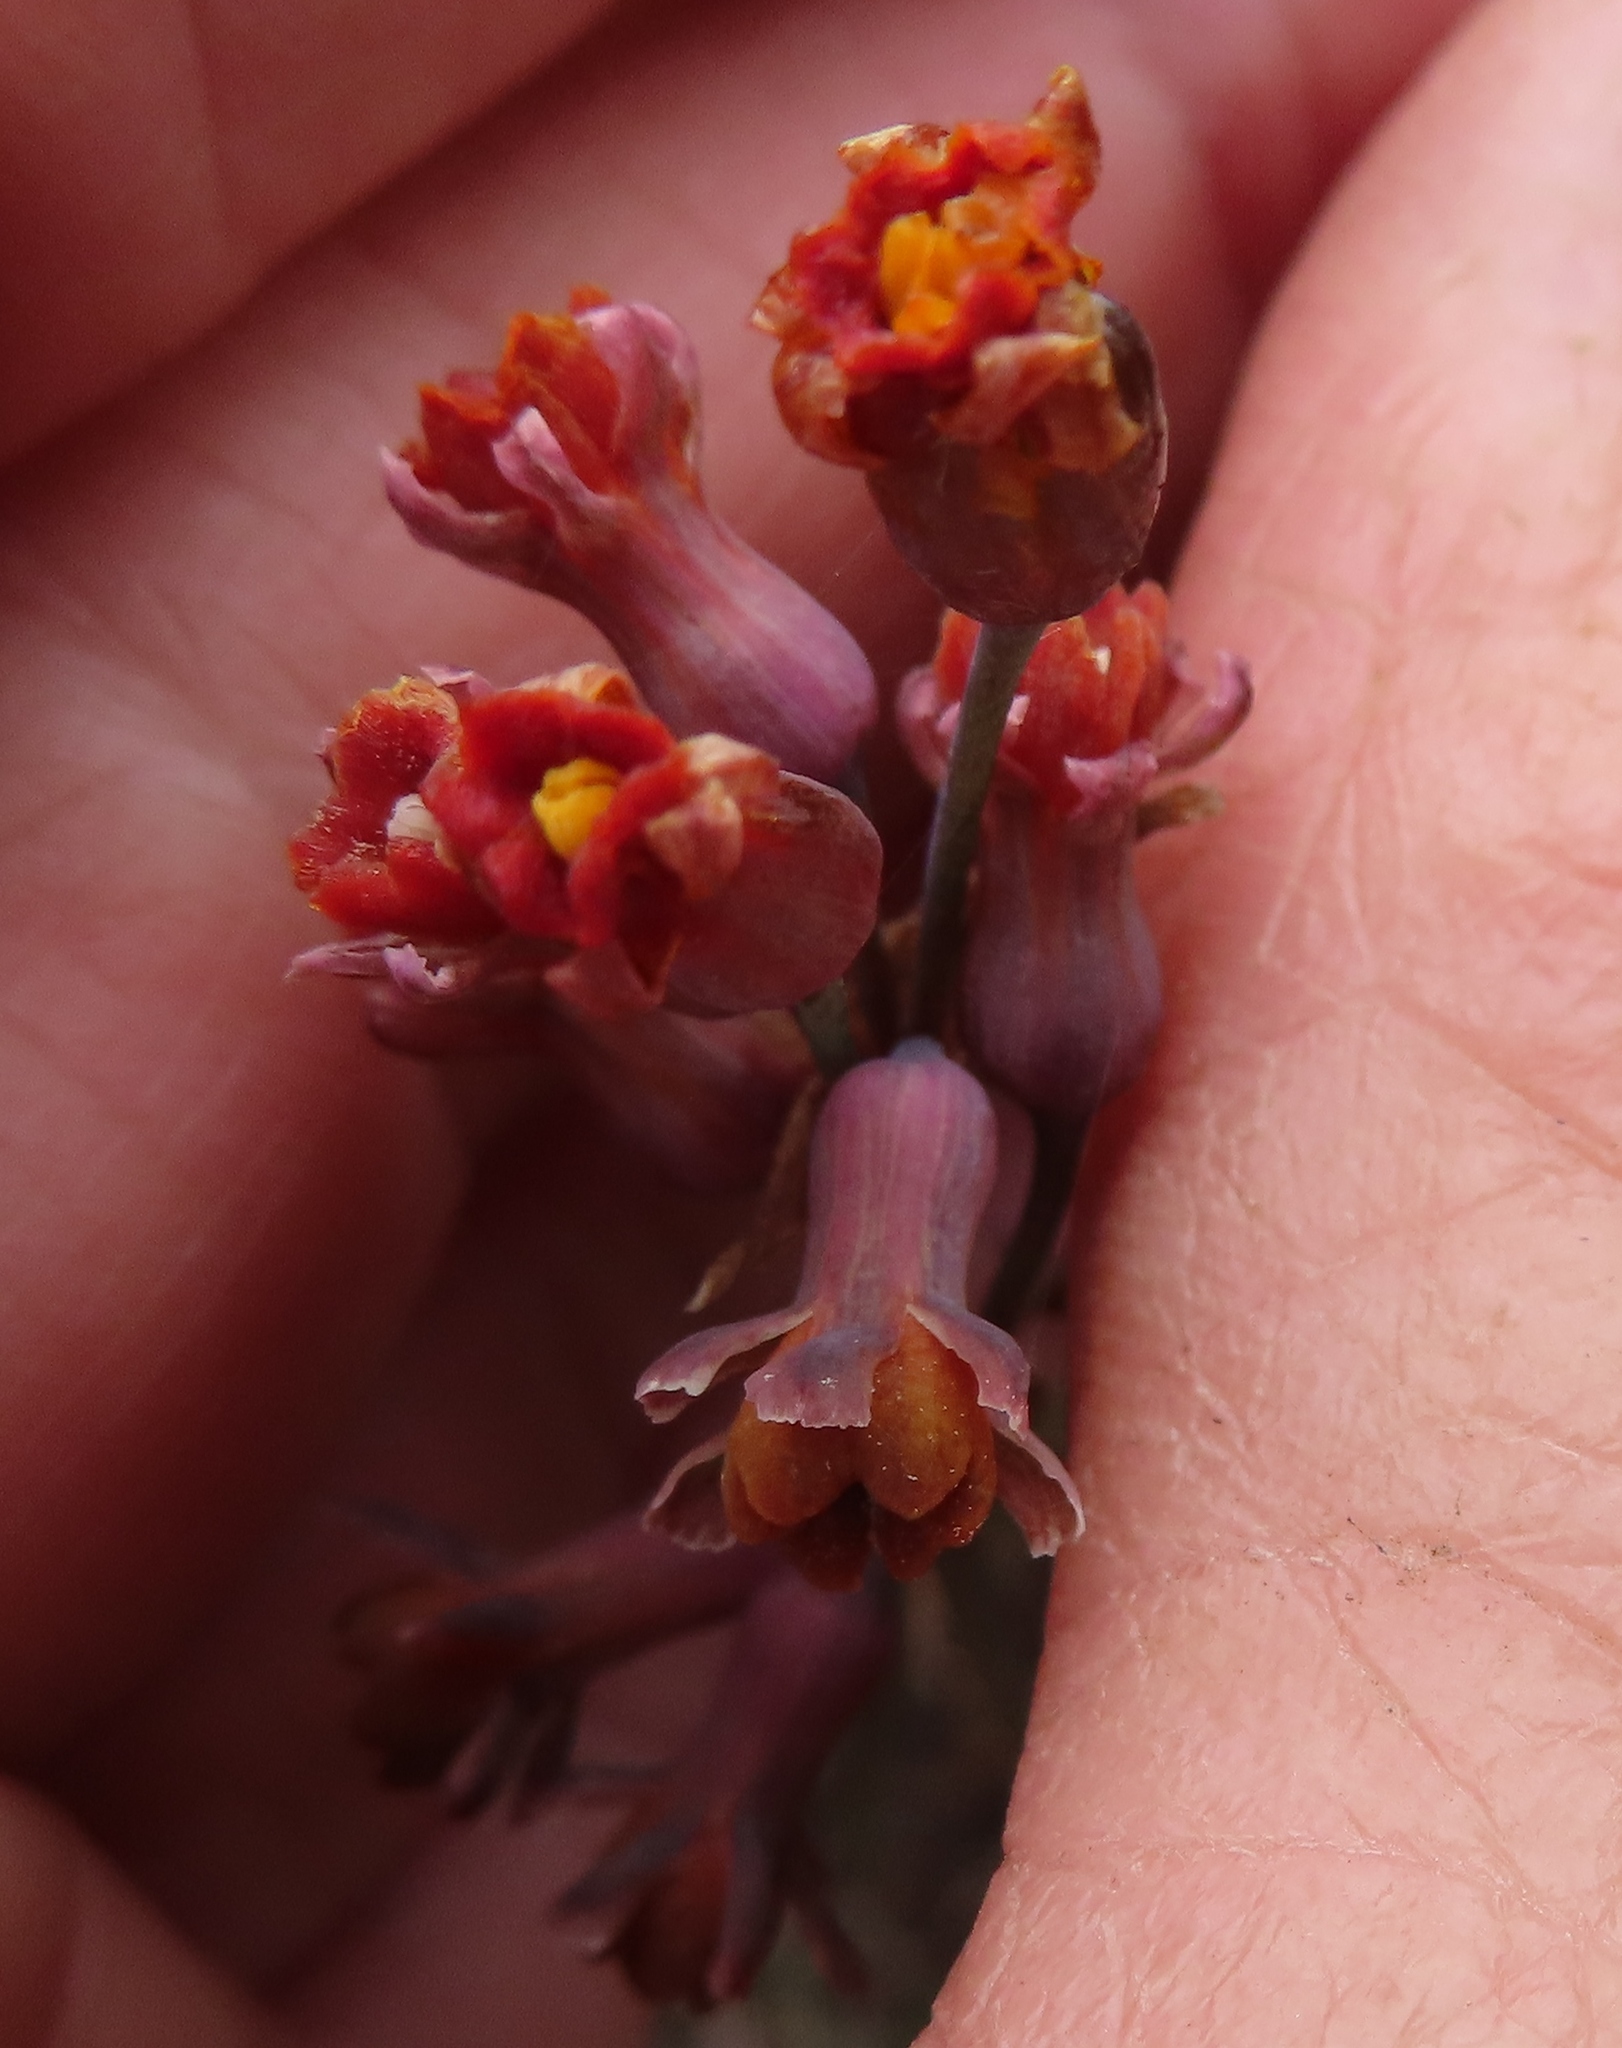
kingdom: Plantae
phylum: Tracheophyta
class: Liliopsida
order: Asparagales
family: Amaryllidaceae
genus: Tulbaghia
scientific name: Tulbaghia alliacea
